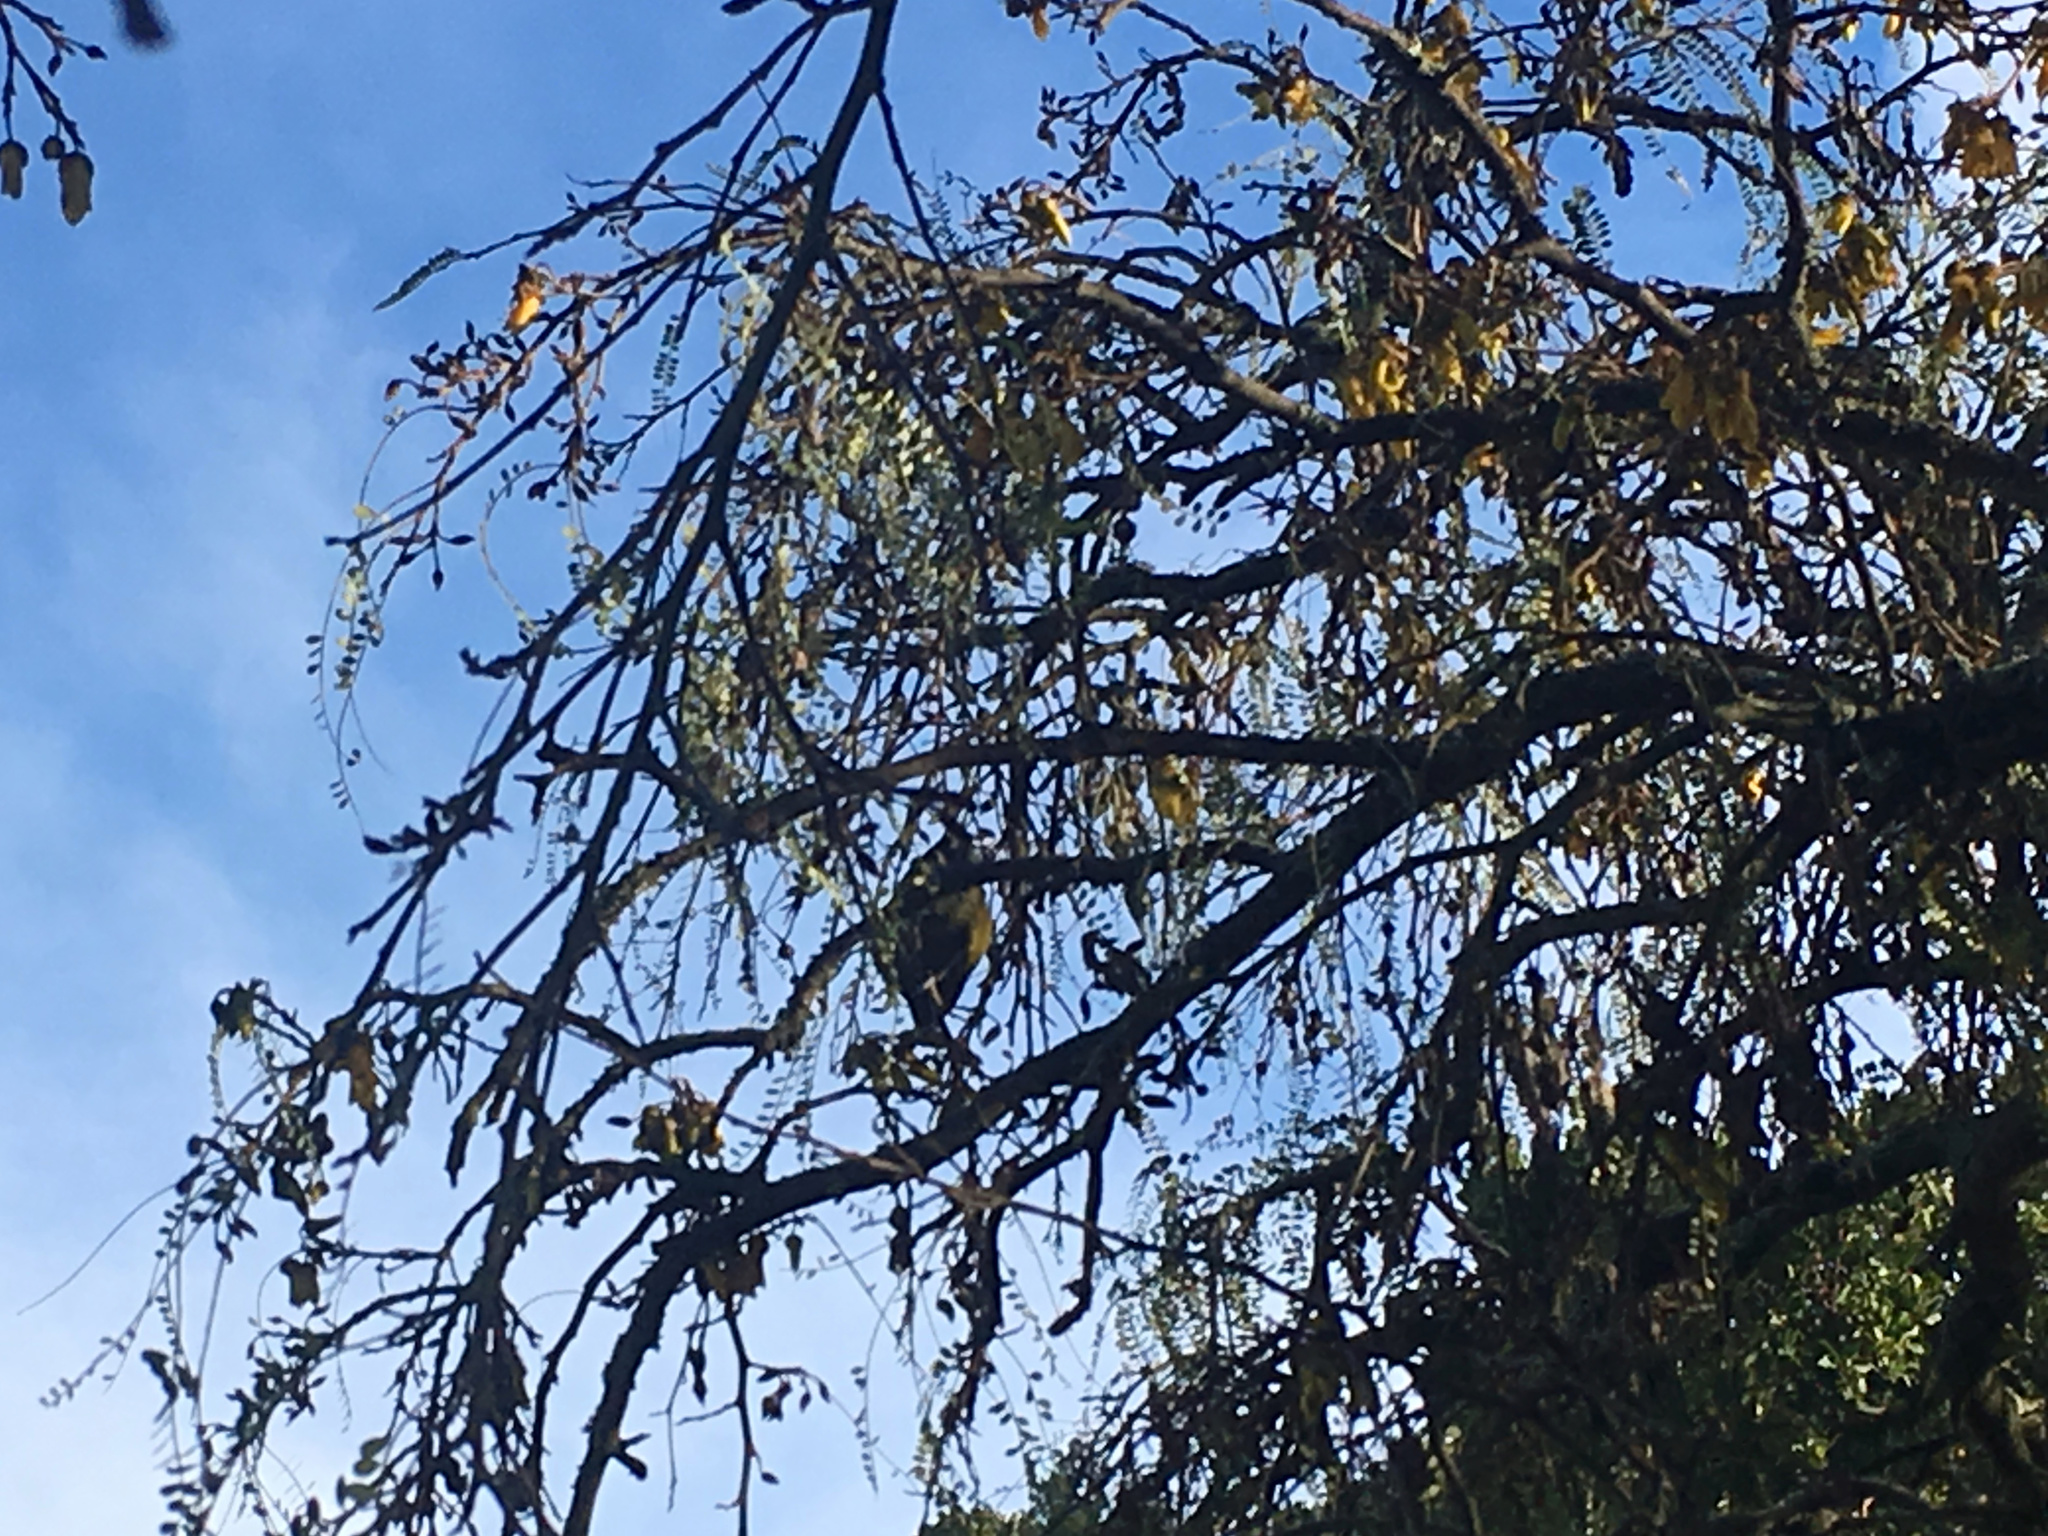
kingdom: Animalia
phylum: Chordata
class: Aves
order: Passeriformes
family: Meliphagidae
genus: Anthornis
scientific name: Anthornis melanura
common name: New zealand bellbird
